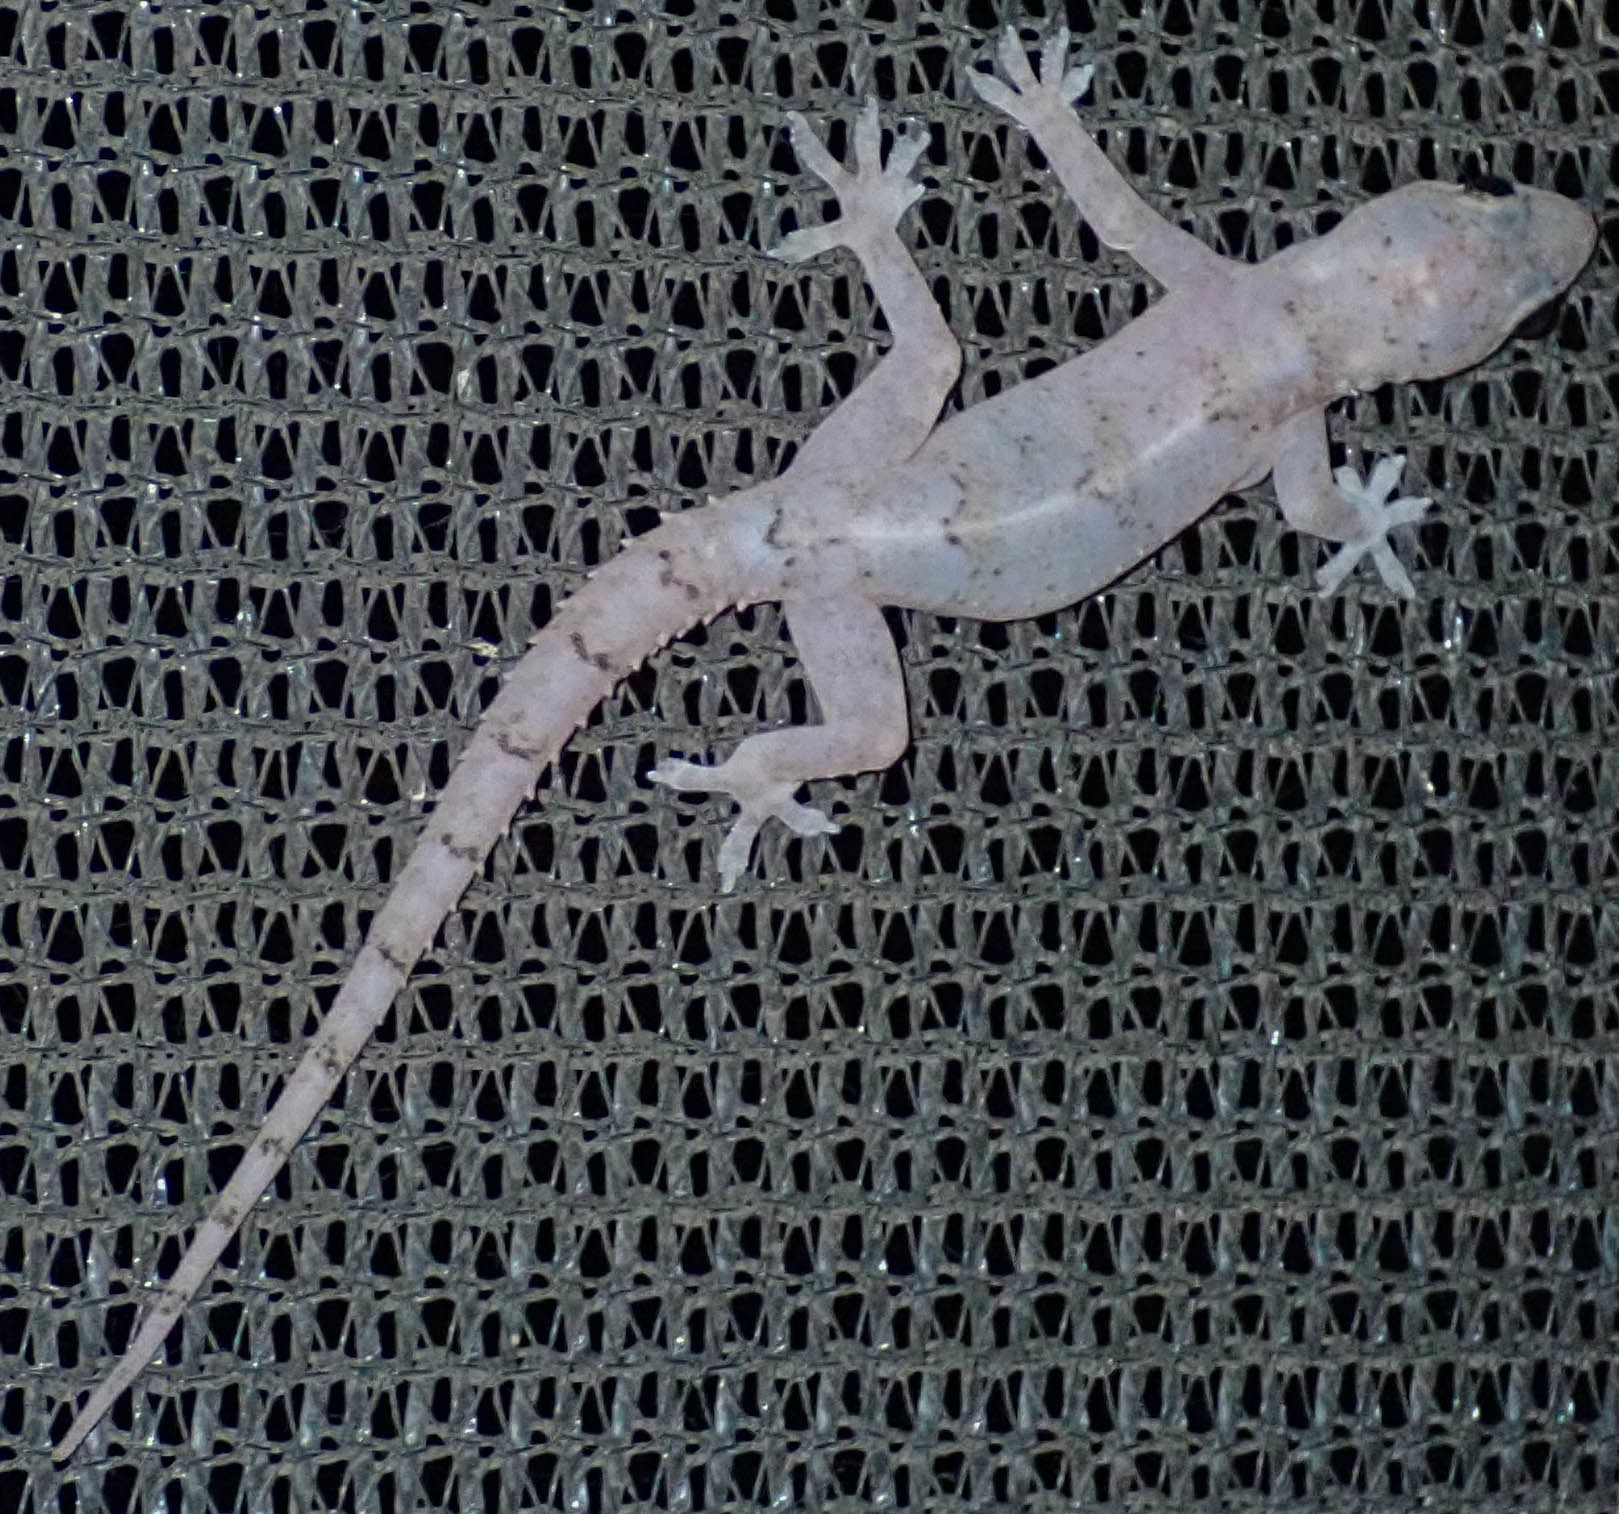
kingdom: Animalia
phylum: Chordata
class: Squamata
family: Gekkonidae
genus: Hemidactylus
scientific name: Hemidactylus mabouia
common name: House gecko
